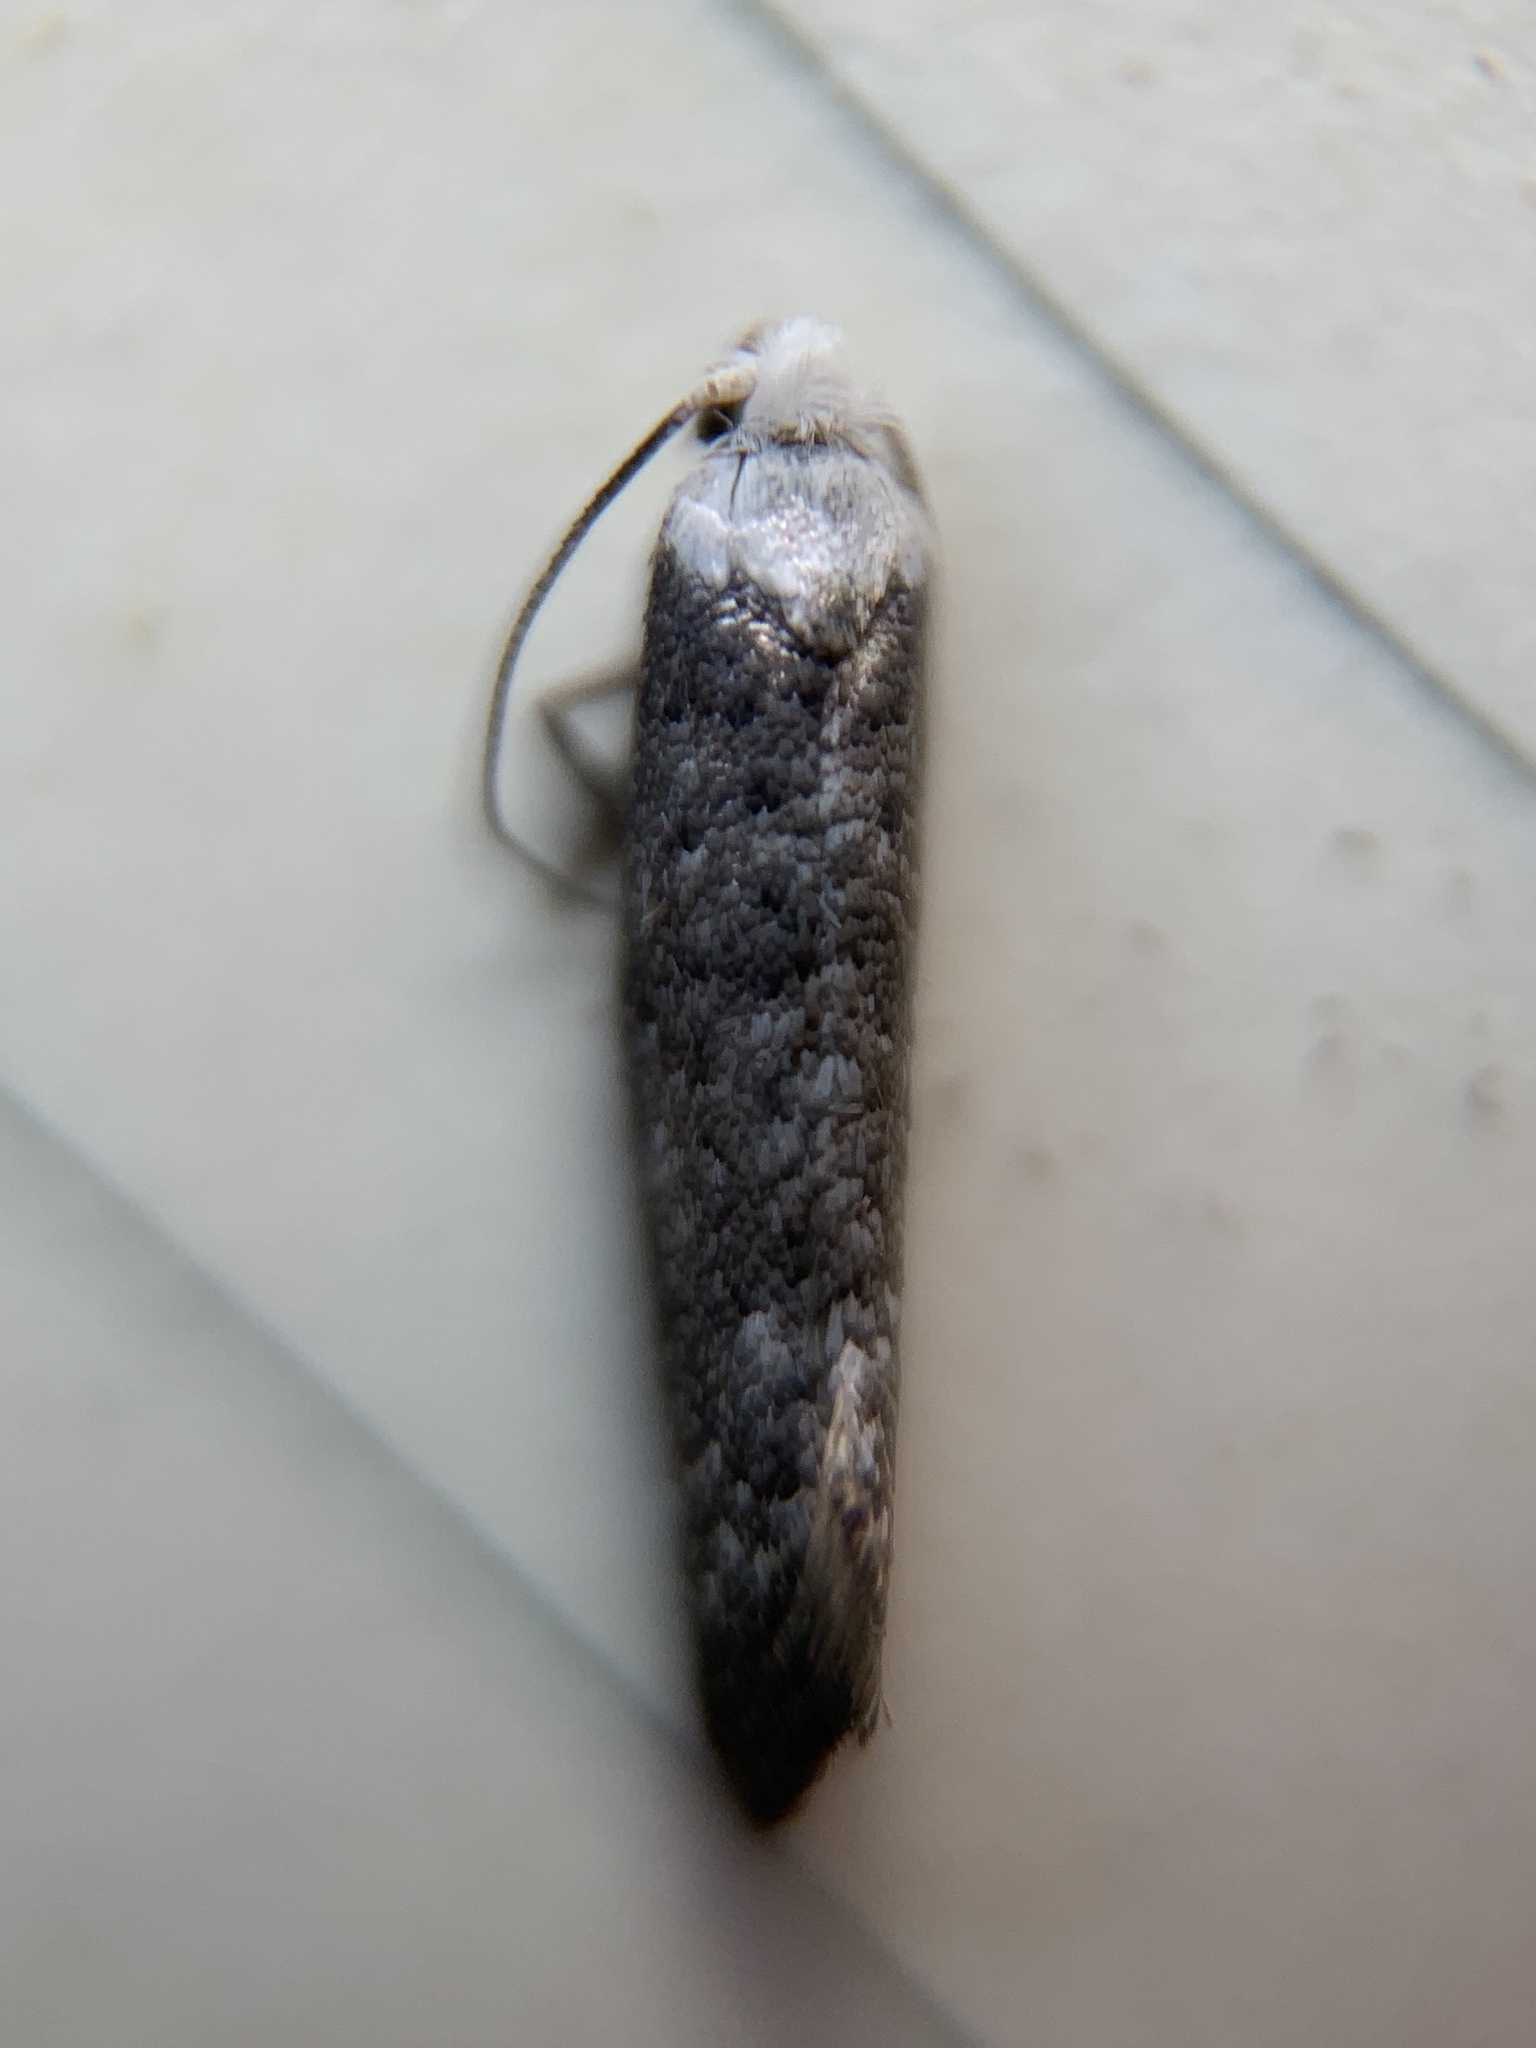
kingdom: Animalia
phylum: Arthropoda
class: Insecta
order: Lepidoptera
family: Yponomeutidae
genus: Swammerdamia
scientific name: Swammerdamia
